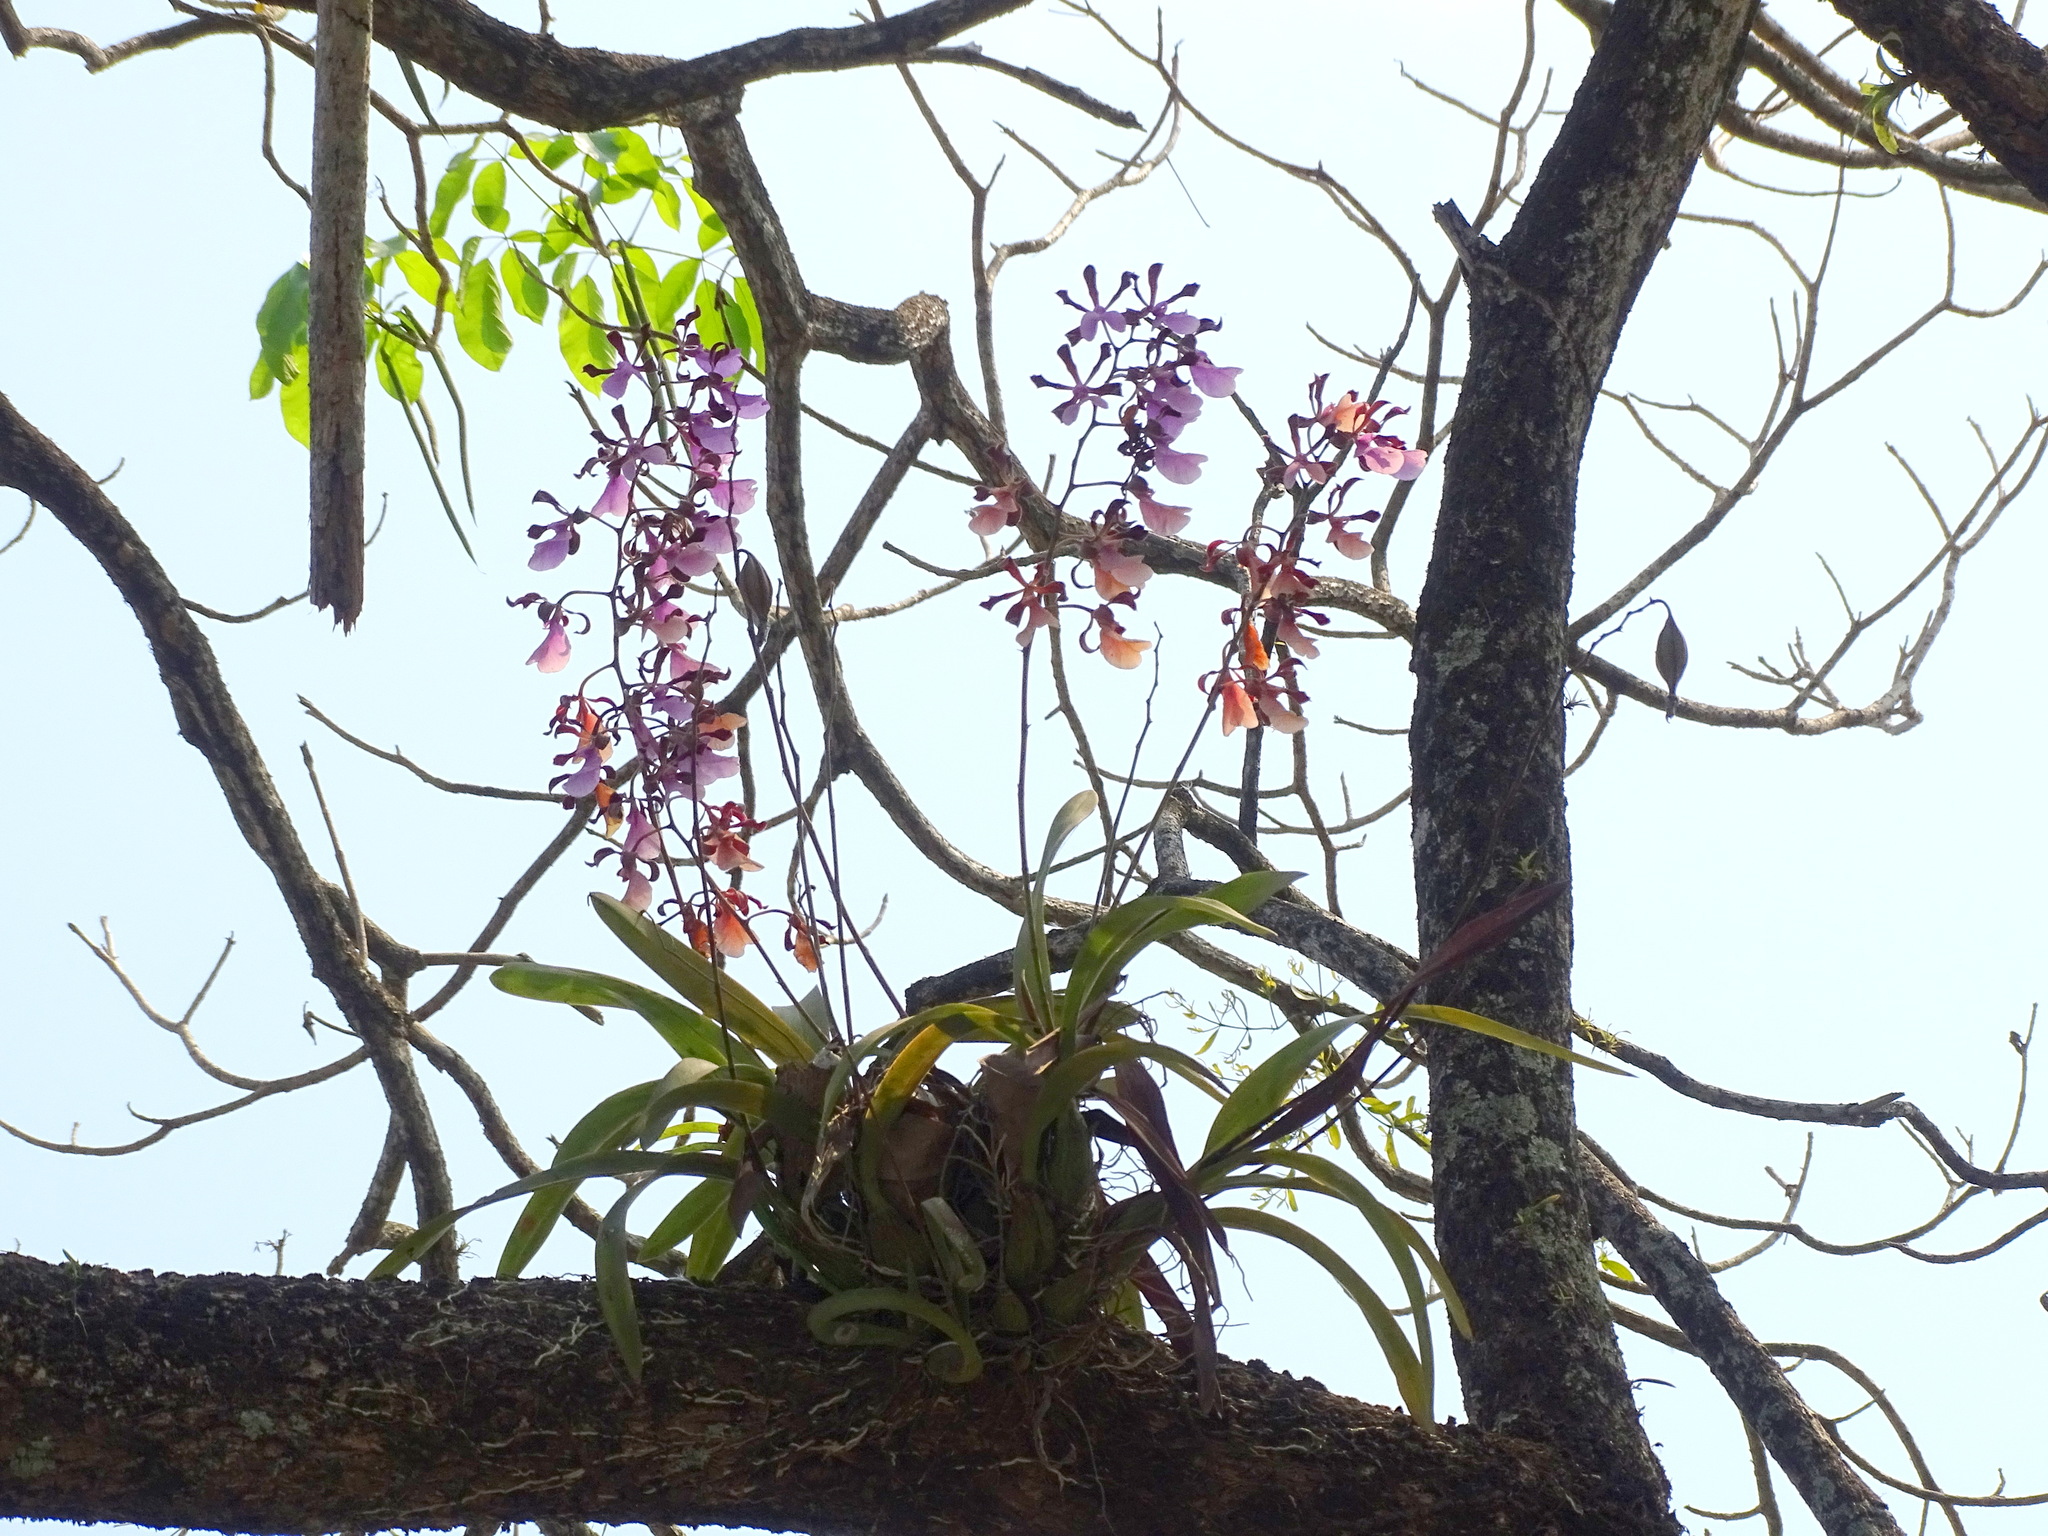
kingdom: Plantae
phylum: Tracheophyta
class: Liliopsida
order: Asparagales
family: Orchidaceae
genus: Encyclia
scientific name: Encyclia cordigera
